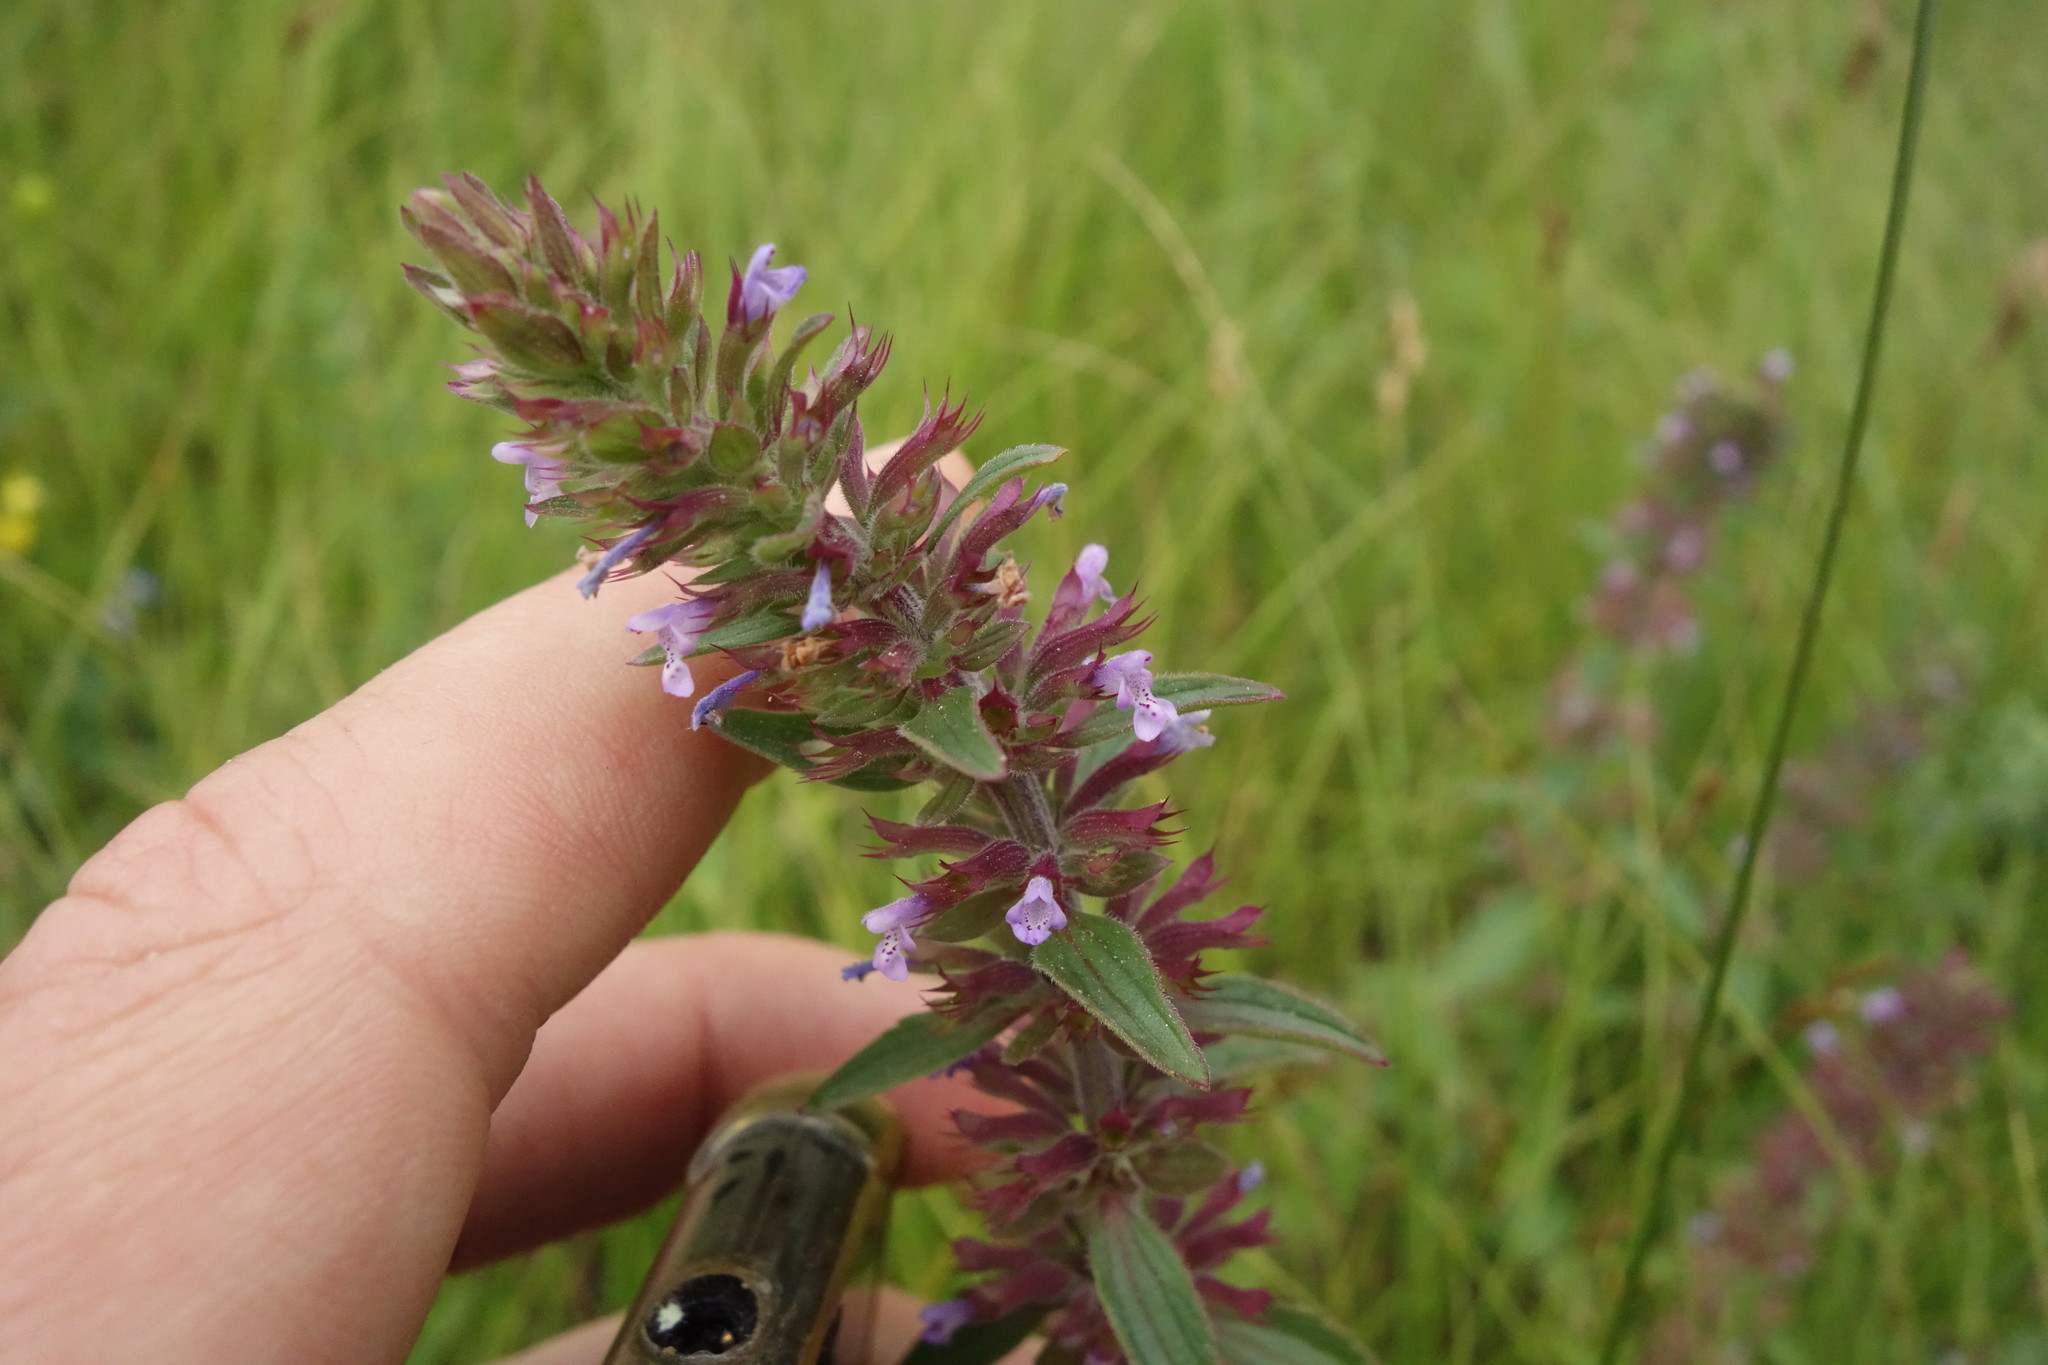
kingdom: Plantae
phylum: Tracheophyta
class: Magnoliopsida
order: Lamiales
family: Lamiaceae
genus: Dracocephalum
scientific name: Dracocephalum thymiflorum
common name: Thymeleaf dragonhead
